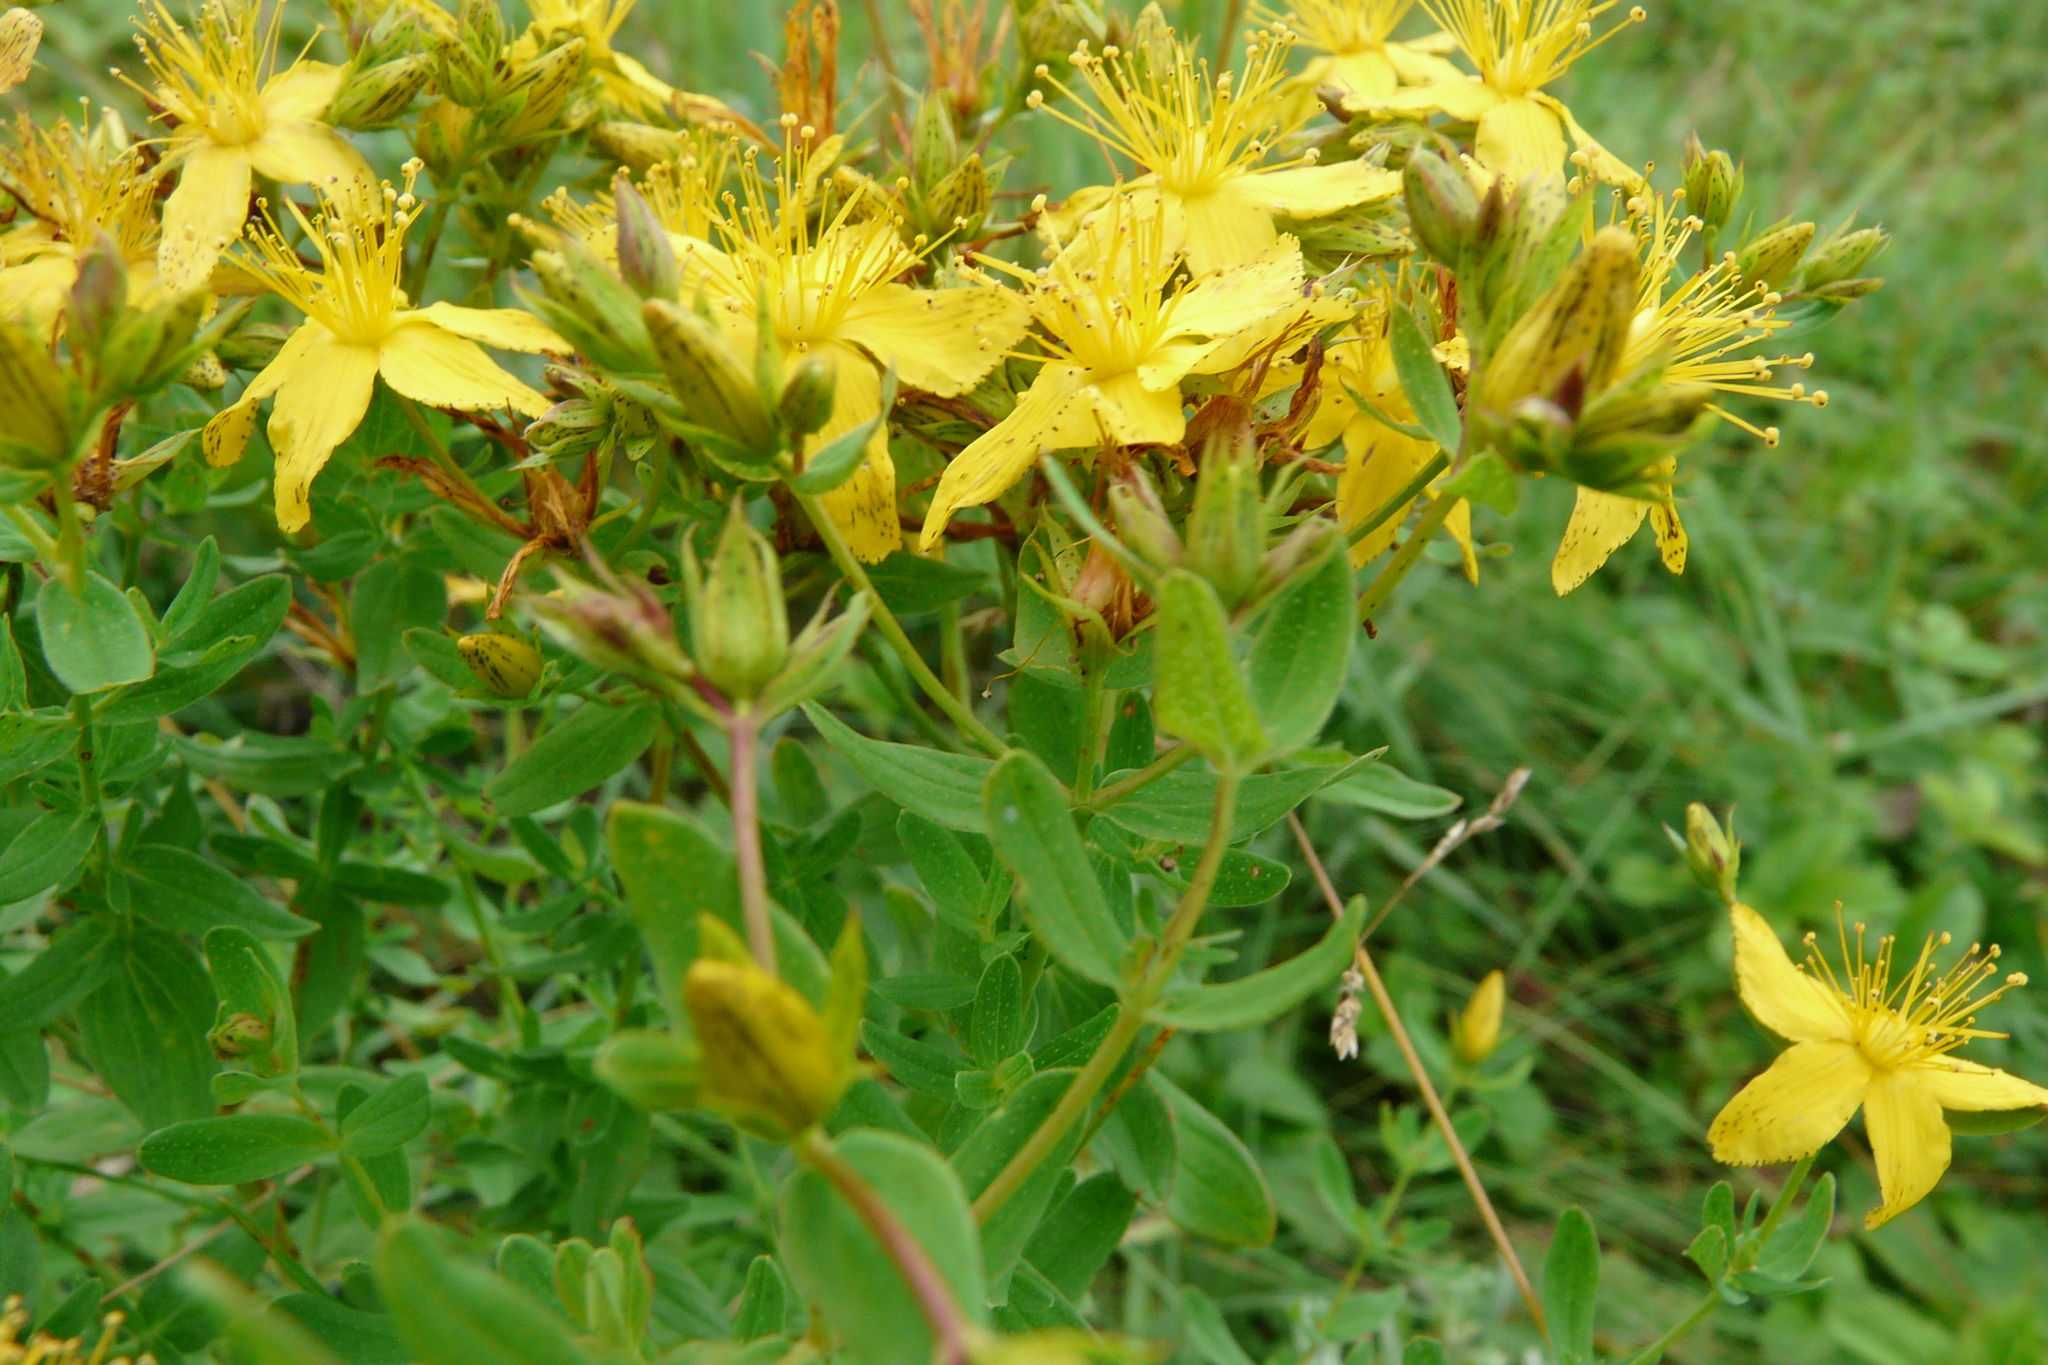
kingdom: Plantae
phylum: Tracheophyta
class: Magnoliopsida
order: Malpighiales
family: Hypericaceae
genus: Hypericum
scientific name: Hypericum perforatum
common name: Common st. johnswort
